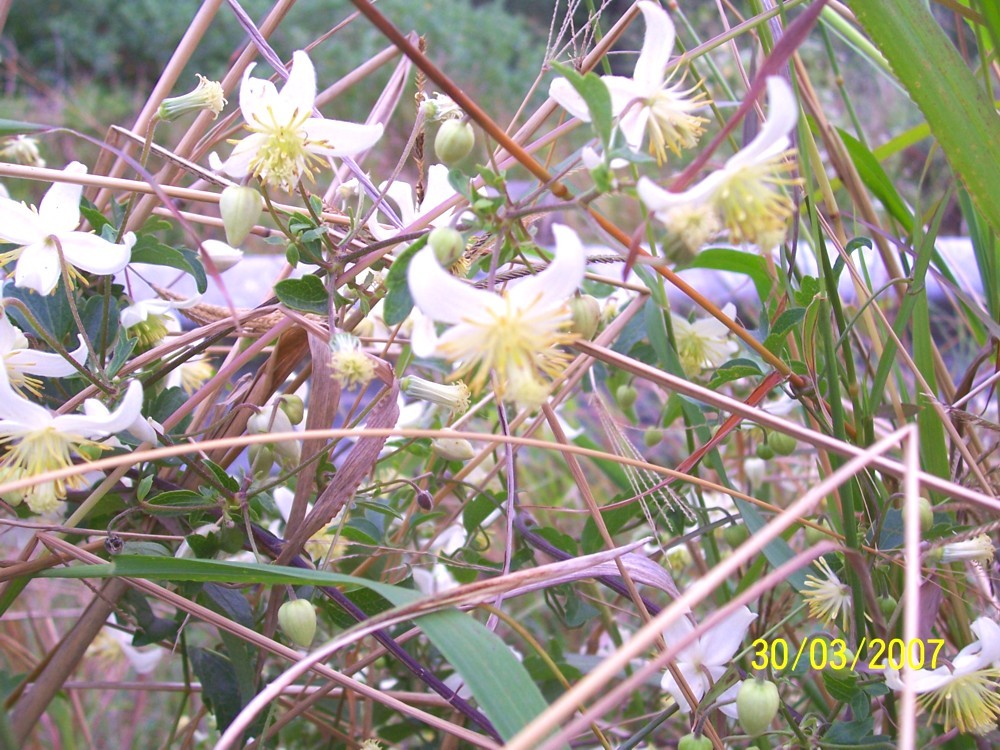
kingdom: Plantae
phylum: Tracheophyta
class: Magnoliopsida
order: Ranunculales
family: Ranunculaceae
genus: Clematis
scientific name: Clematis brachiata
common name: Traveler's-joy
